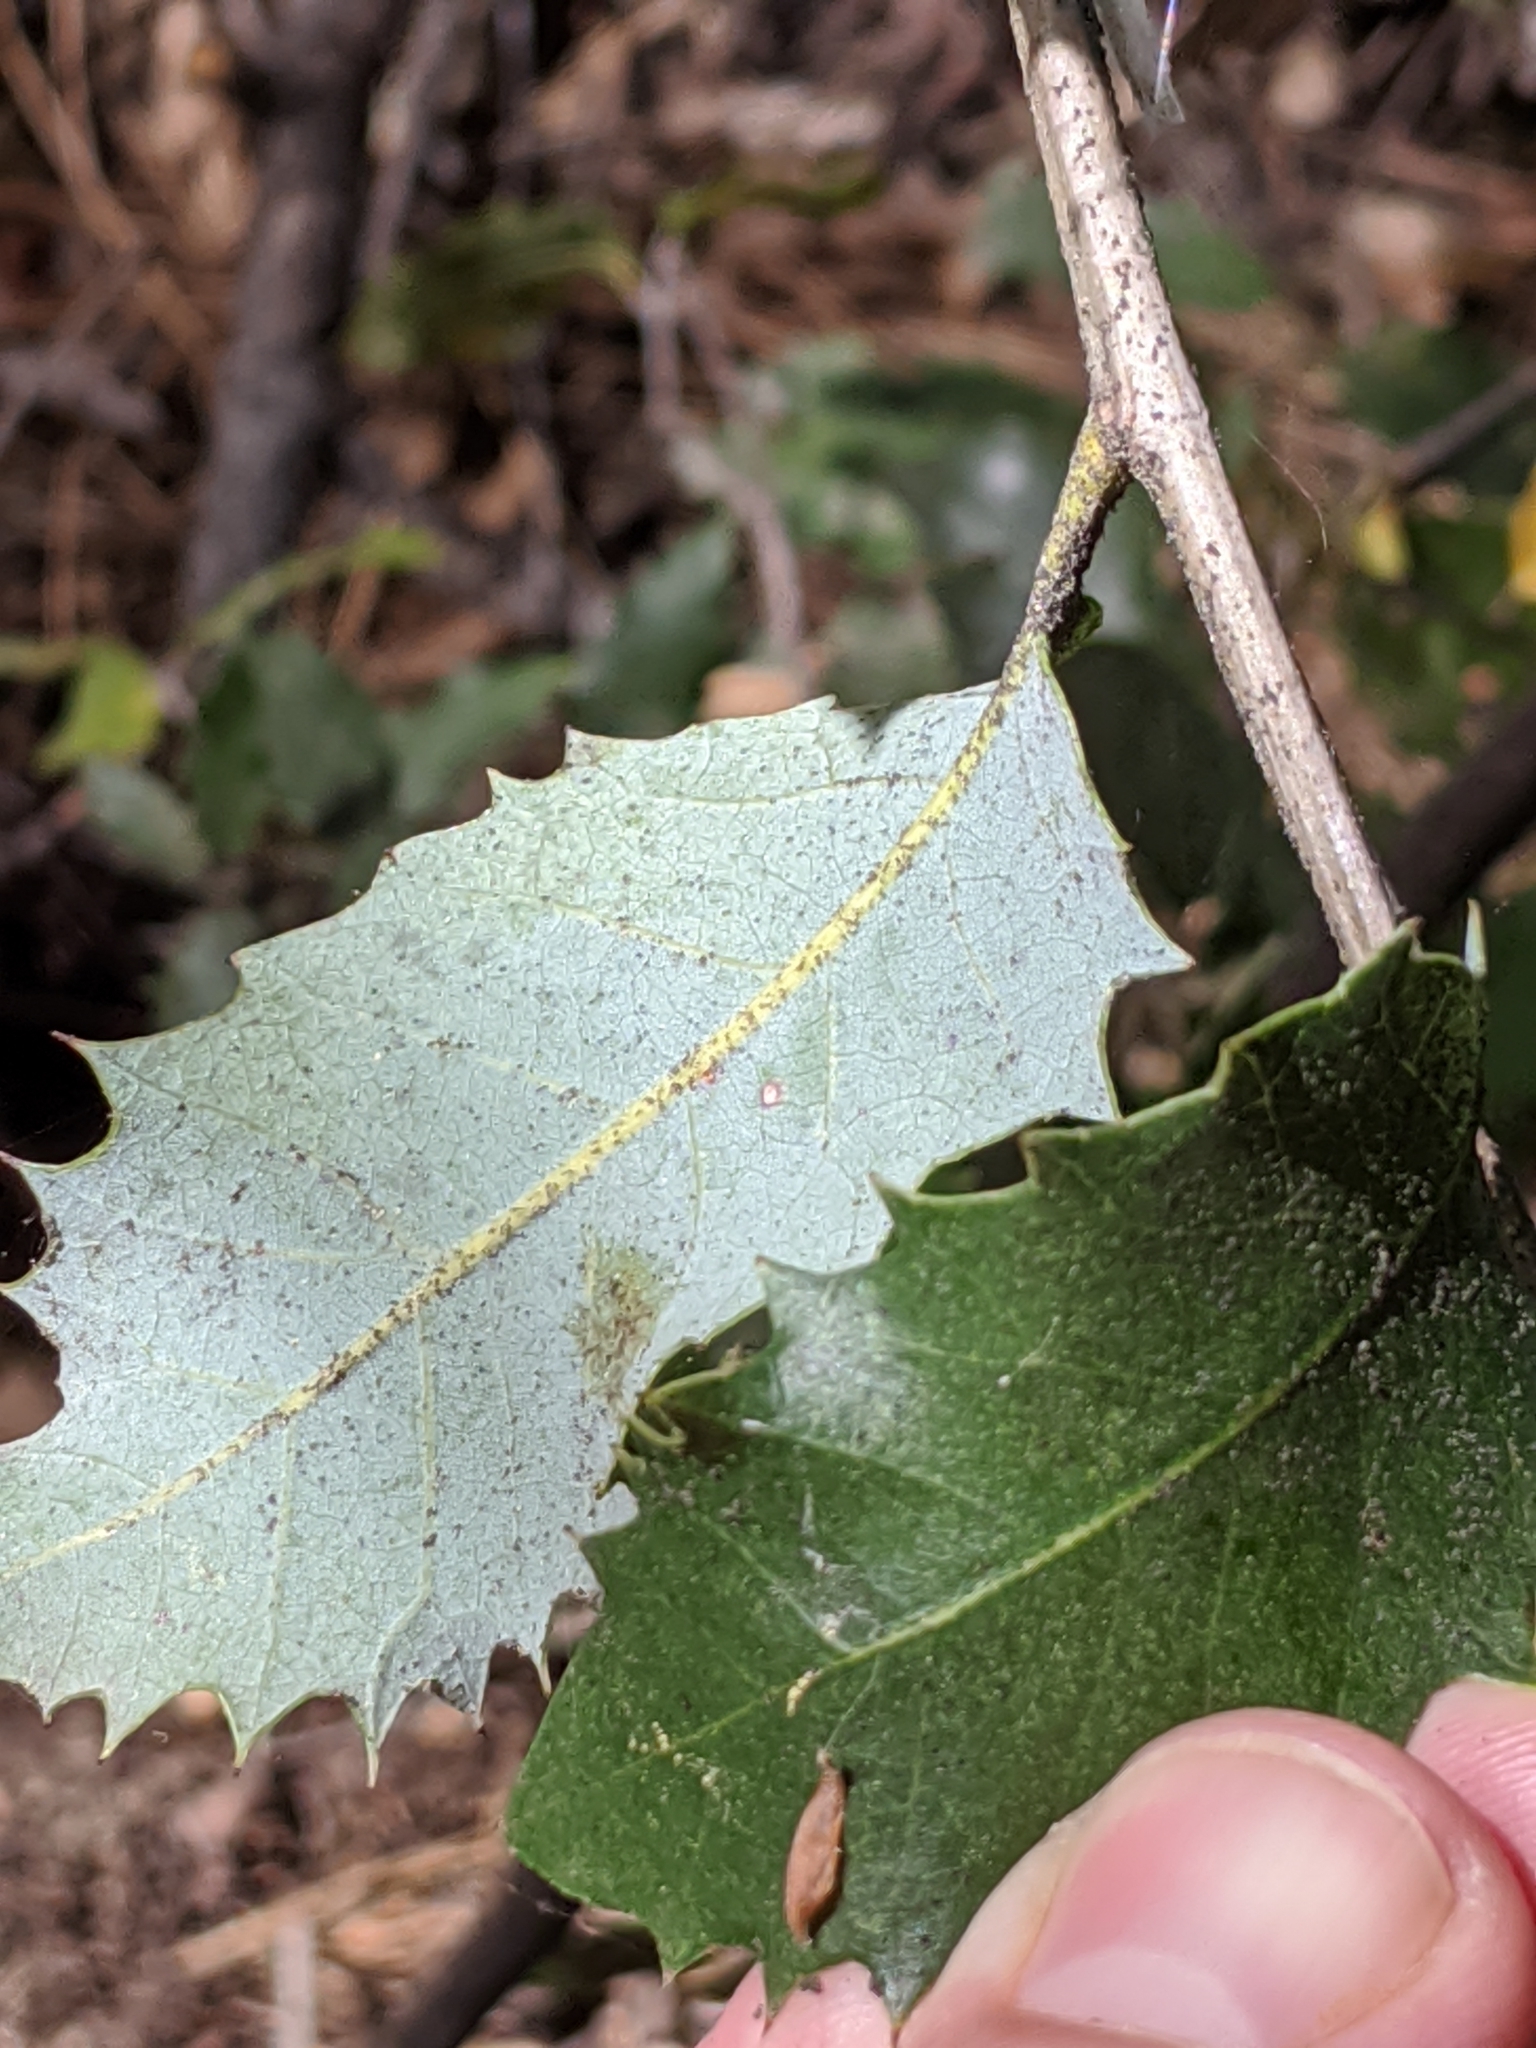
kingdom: Plantae
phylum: Tracheophyta
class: Magnoliopsida
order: Fagales
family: Fagaceae
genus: Quercus
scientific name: Quercus chrysolepis
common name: Canyon live oak
